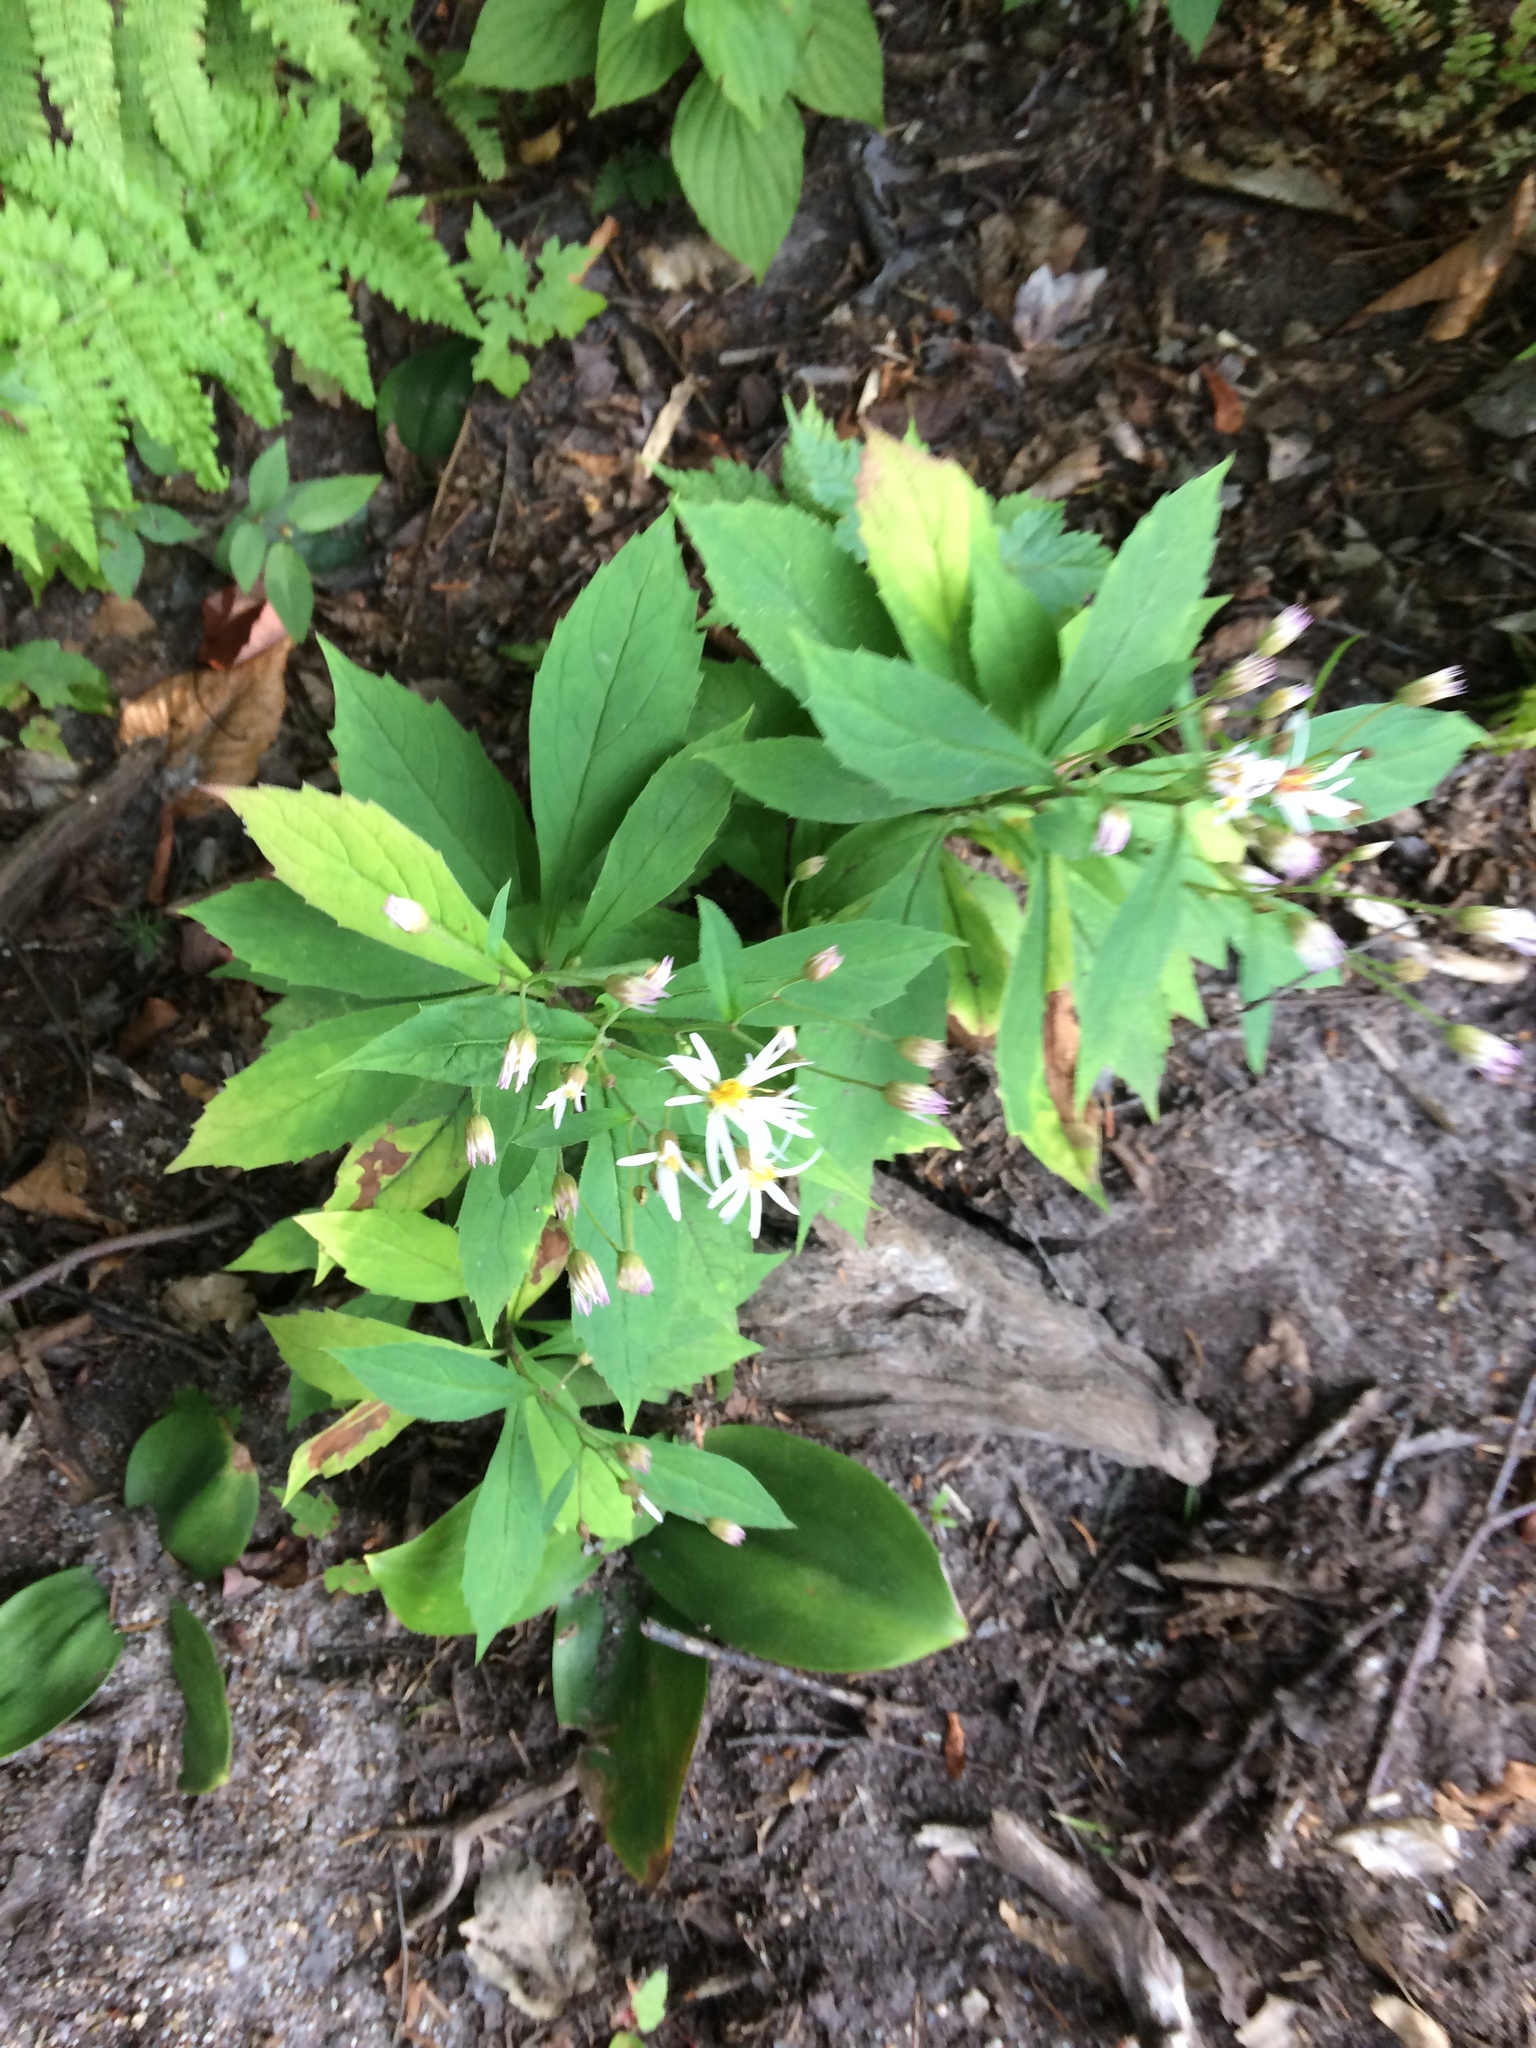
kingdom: Plantae
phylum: Tracheophyta
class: Magnoliopsida
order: Asterales
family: Asteraceae
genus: Oclemena
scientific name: Oclemena acuminata
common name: Mountain aster
